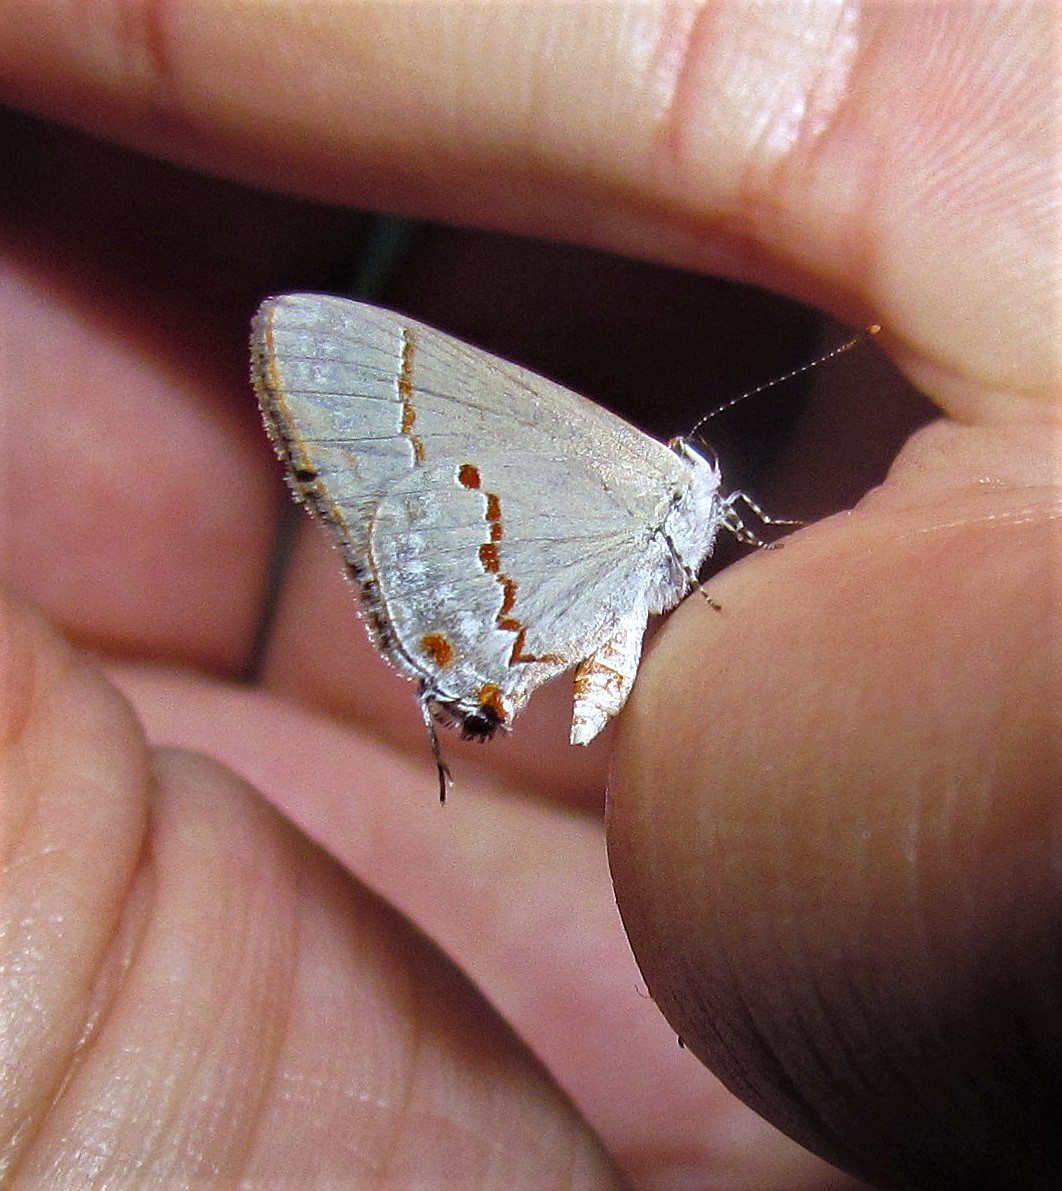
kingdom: Animalia
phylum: Arthropoda
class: Insecta
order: Lepidoptera
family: Lycaenidae
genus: Thecla
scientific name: Thecla azia
